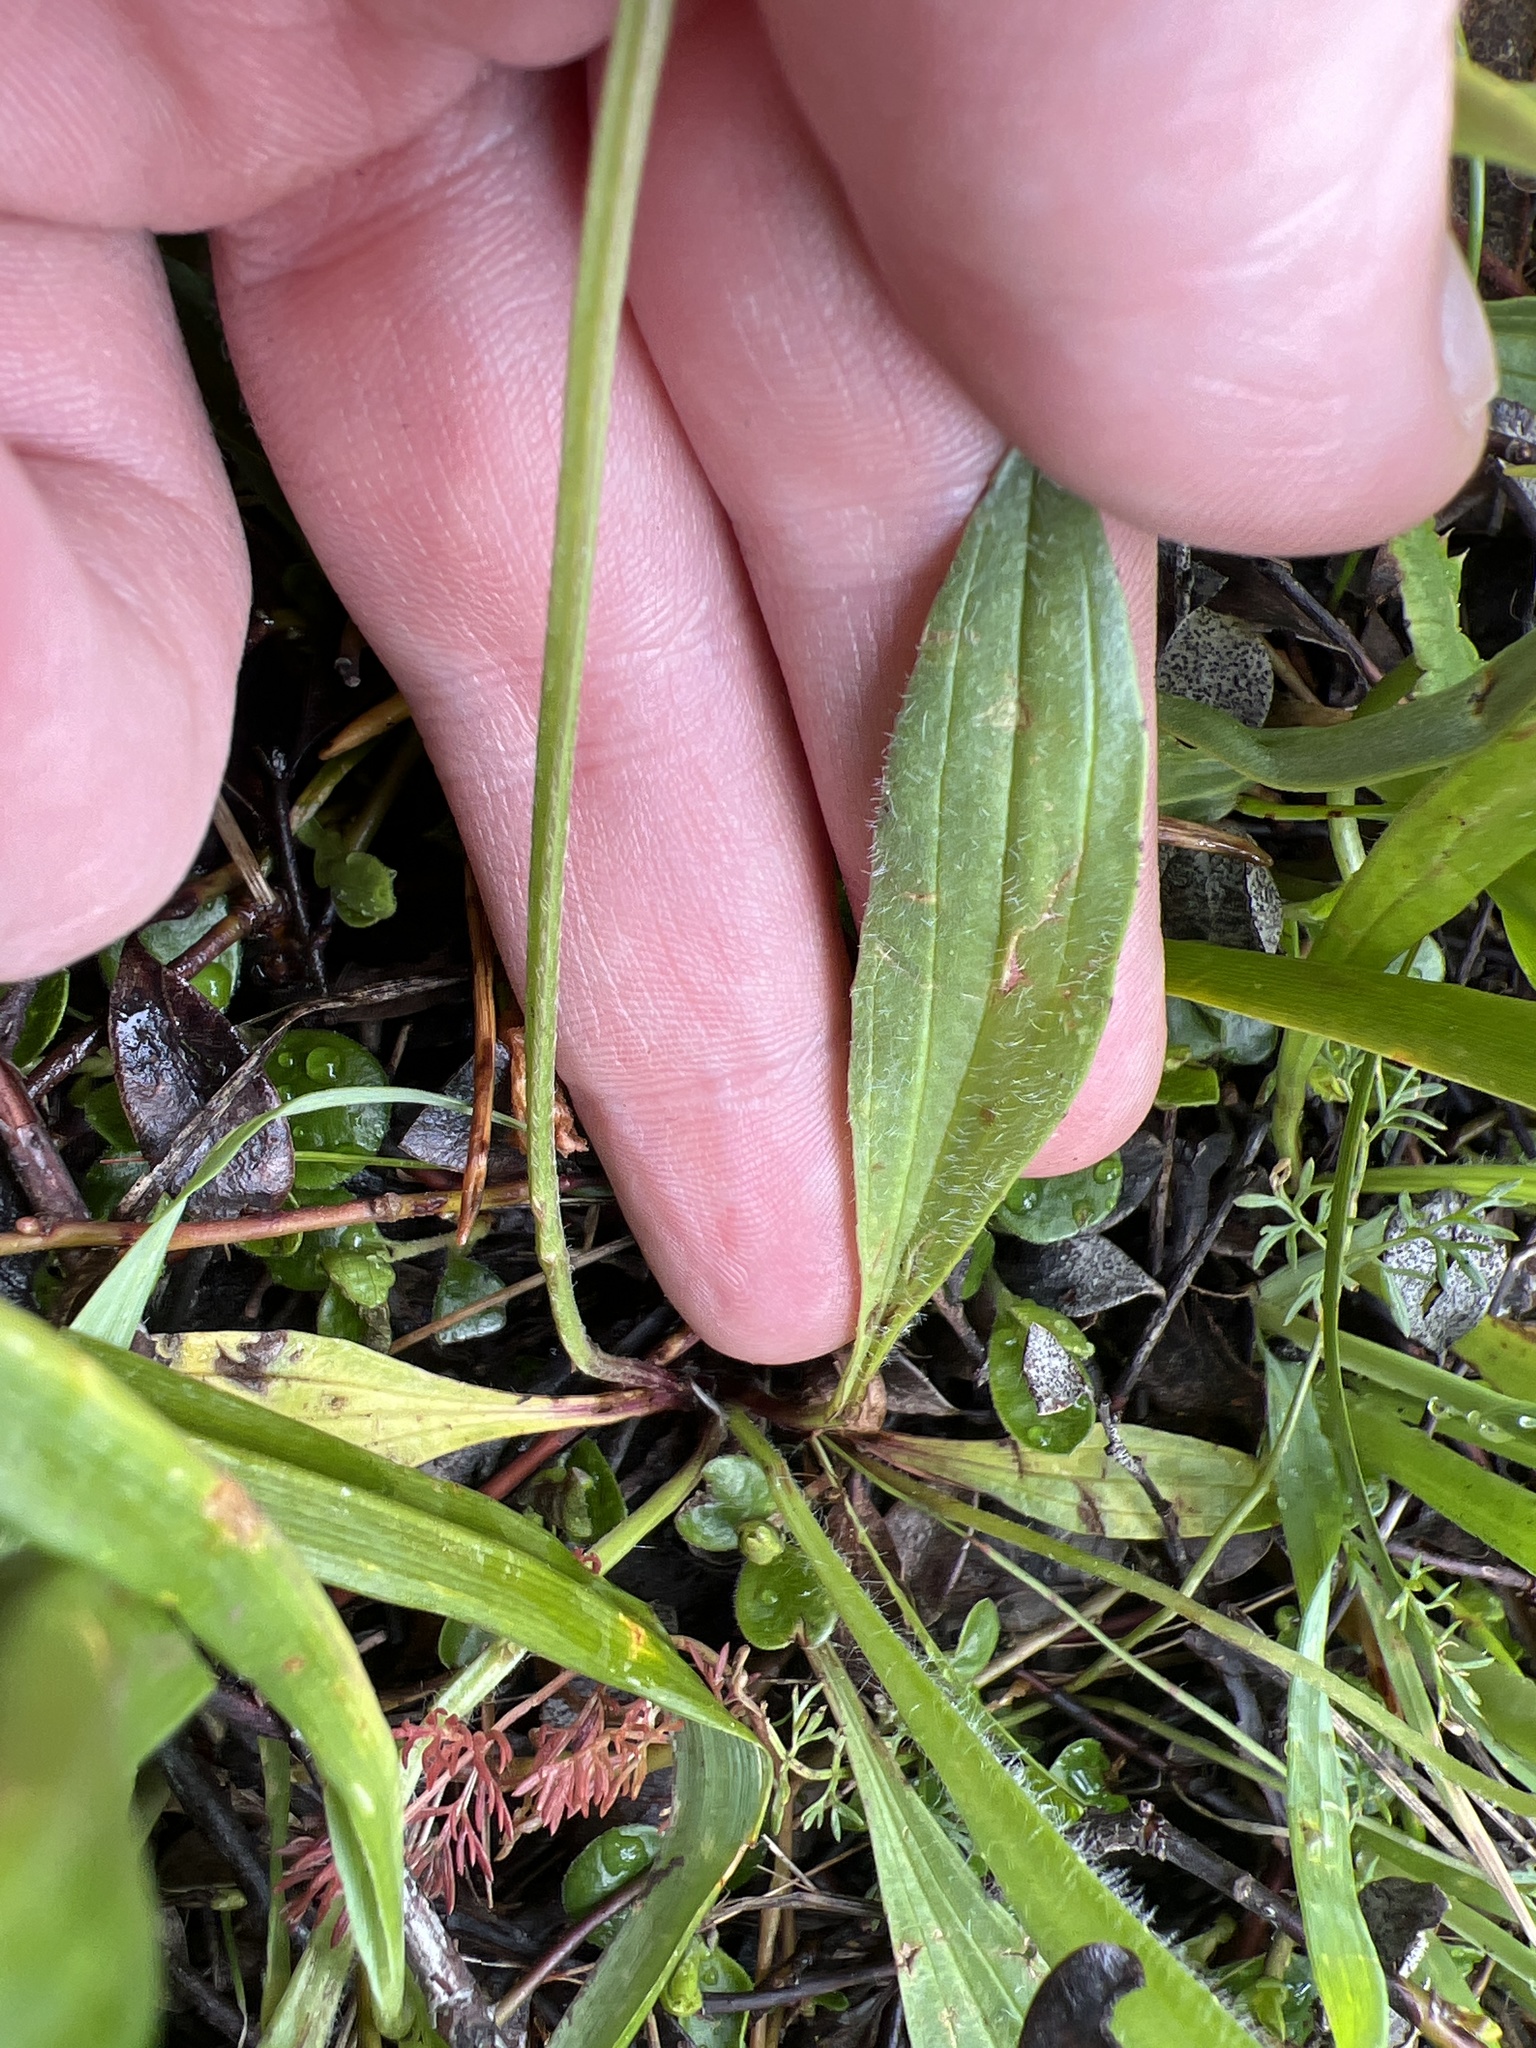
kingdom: Plantae
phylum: Tracheophyta
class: Magnoliopsida
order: Lamiales
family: Plantaginaceae
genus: Plantago
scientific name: Plantago lanceolata
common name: Ribwort plantain
